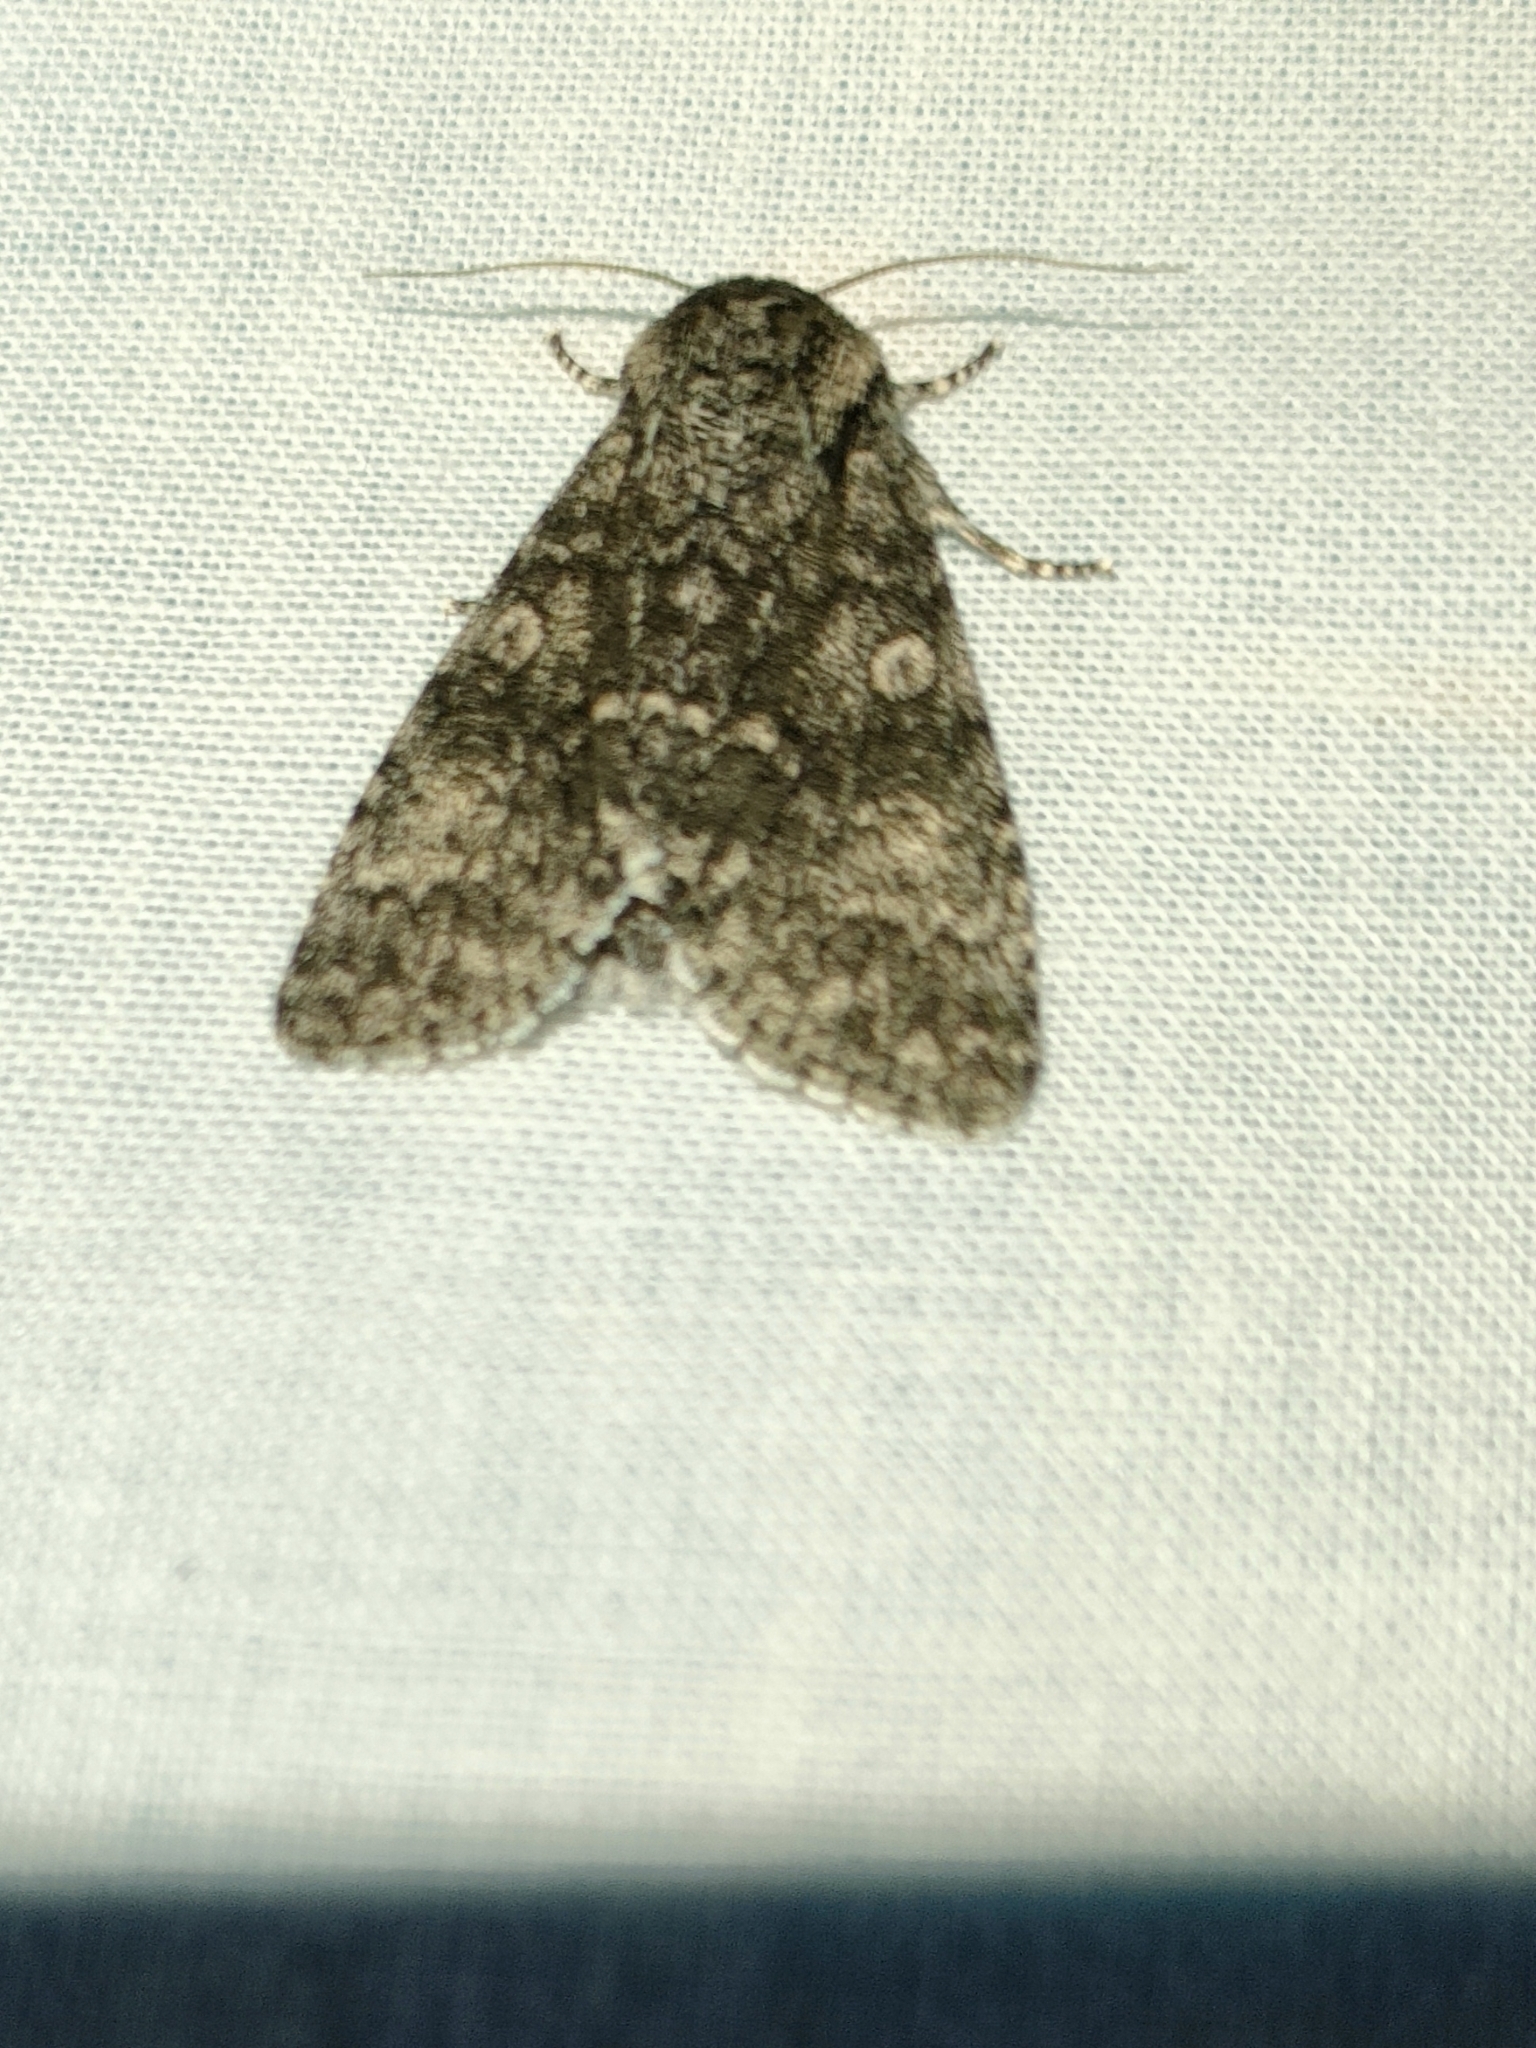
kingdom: Animalia
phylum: Arthropoda
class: Insecta
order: Lepidoptera
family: Noctuidae
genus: Acronicta
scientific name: Acronicta megacephala
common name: Poplar grey
